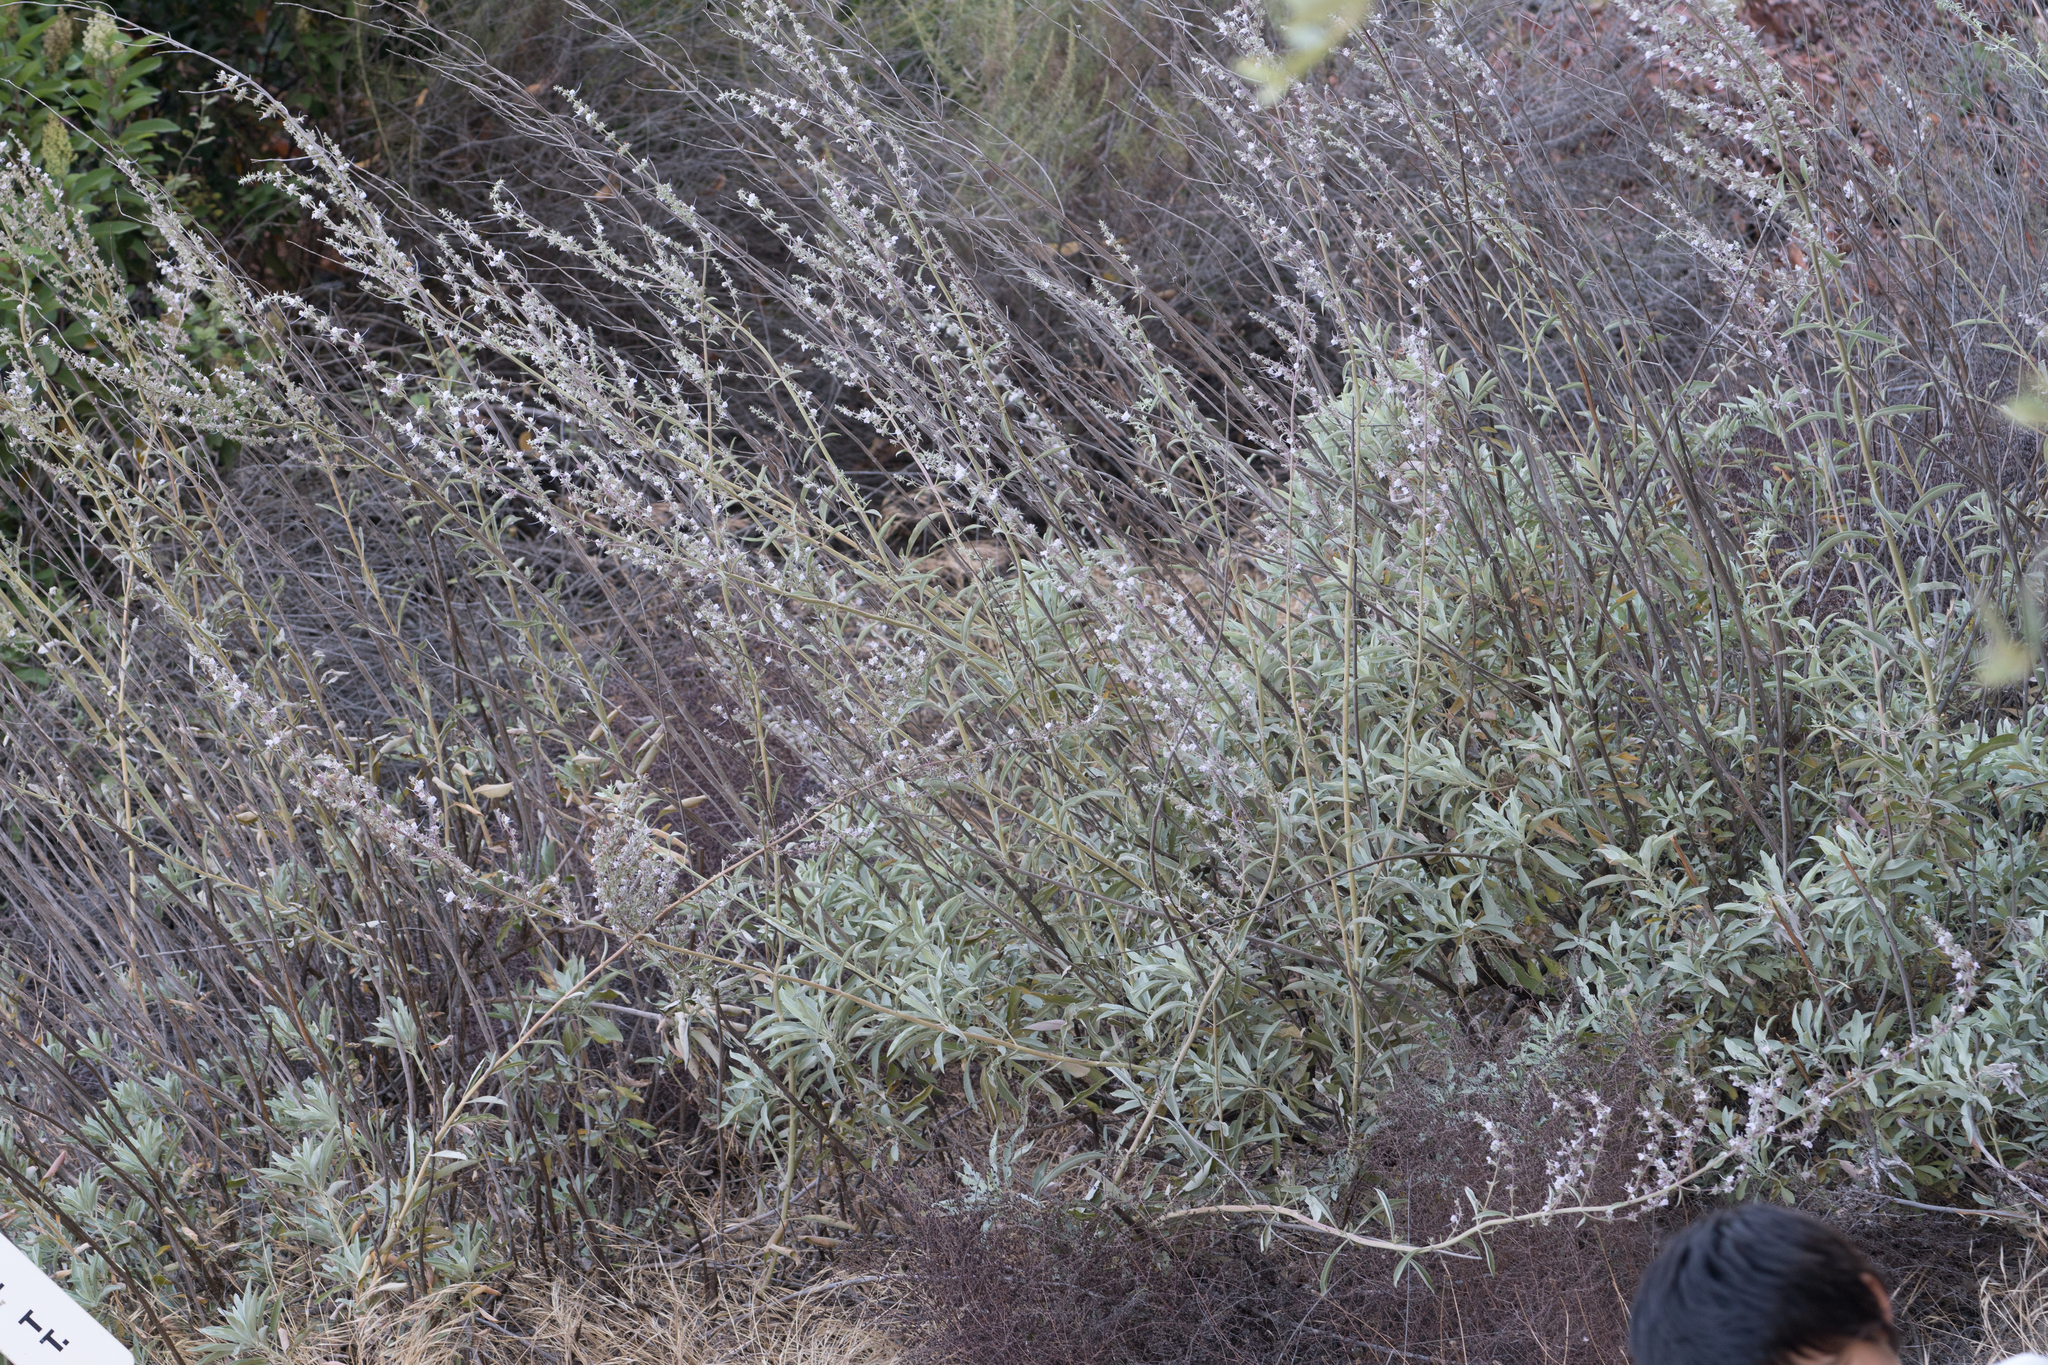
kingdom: Plantae
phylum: Tracheophyta
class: Magnoliopsida
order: Lamiales
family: Lamiaceae
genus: Salvia
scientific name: Salvia apiana
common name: White sage
